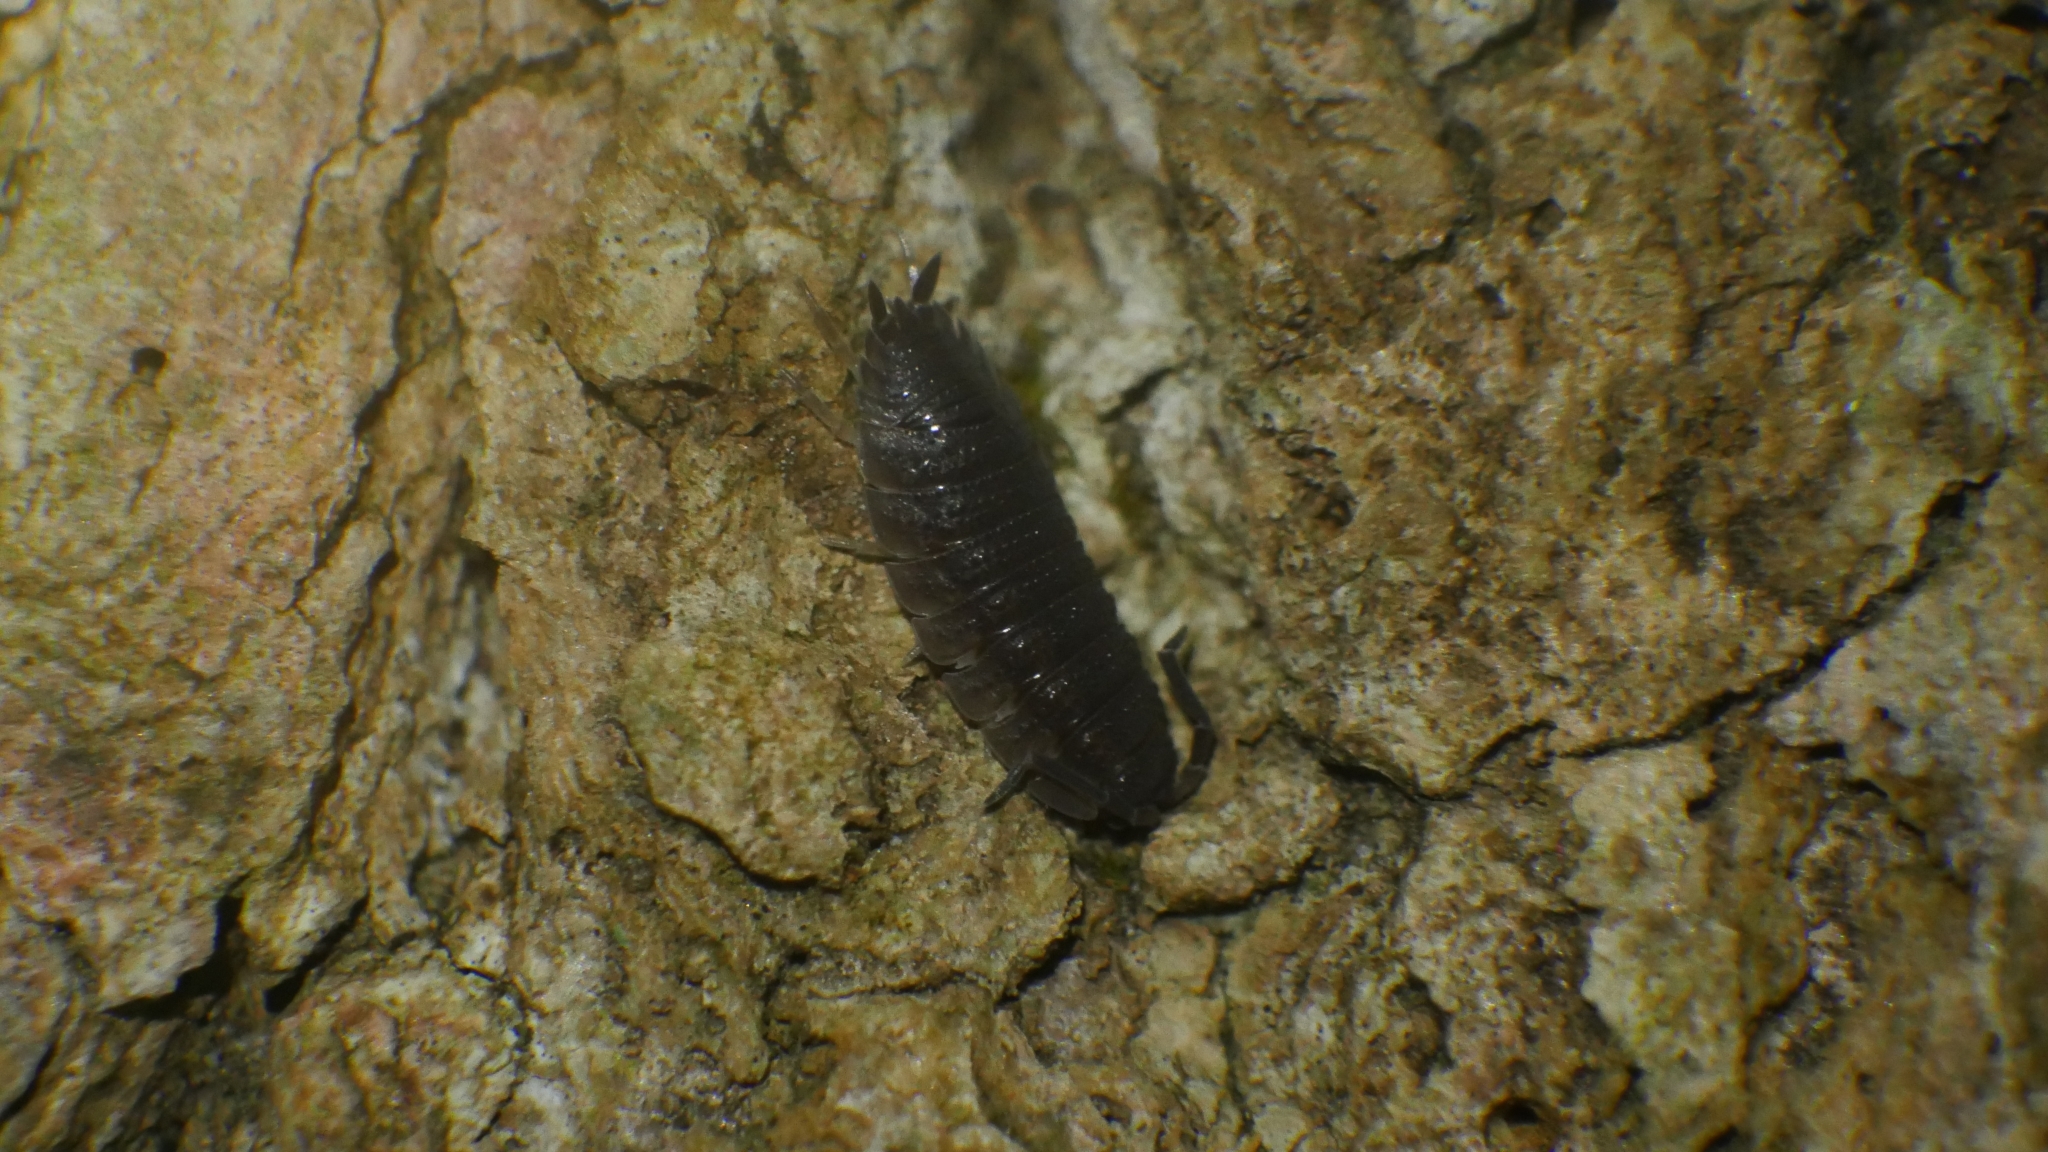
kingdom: Animalia
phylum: Arthropoda
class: Malacostraca
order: Isopoda
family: Porcellionidae
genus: Porcellio
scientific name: Porcellio scaber
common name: Common rough woodlouse
